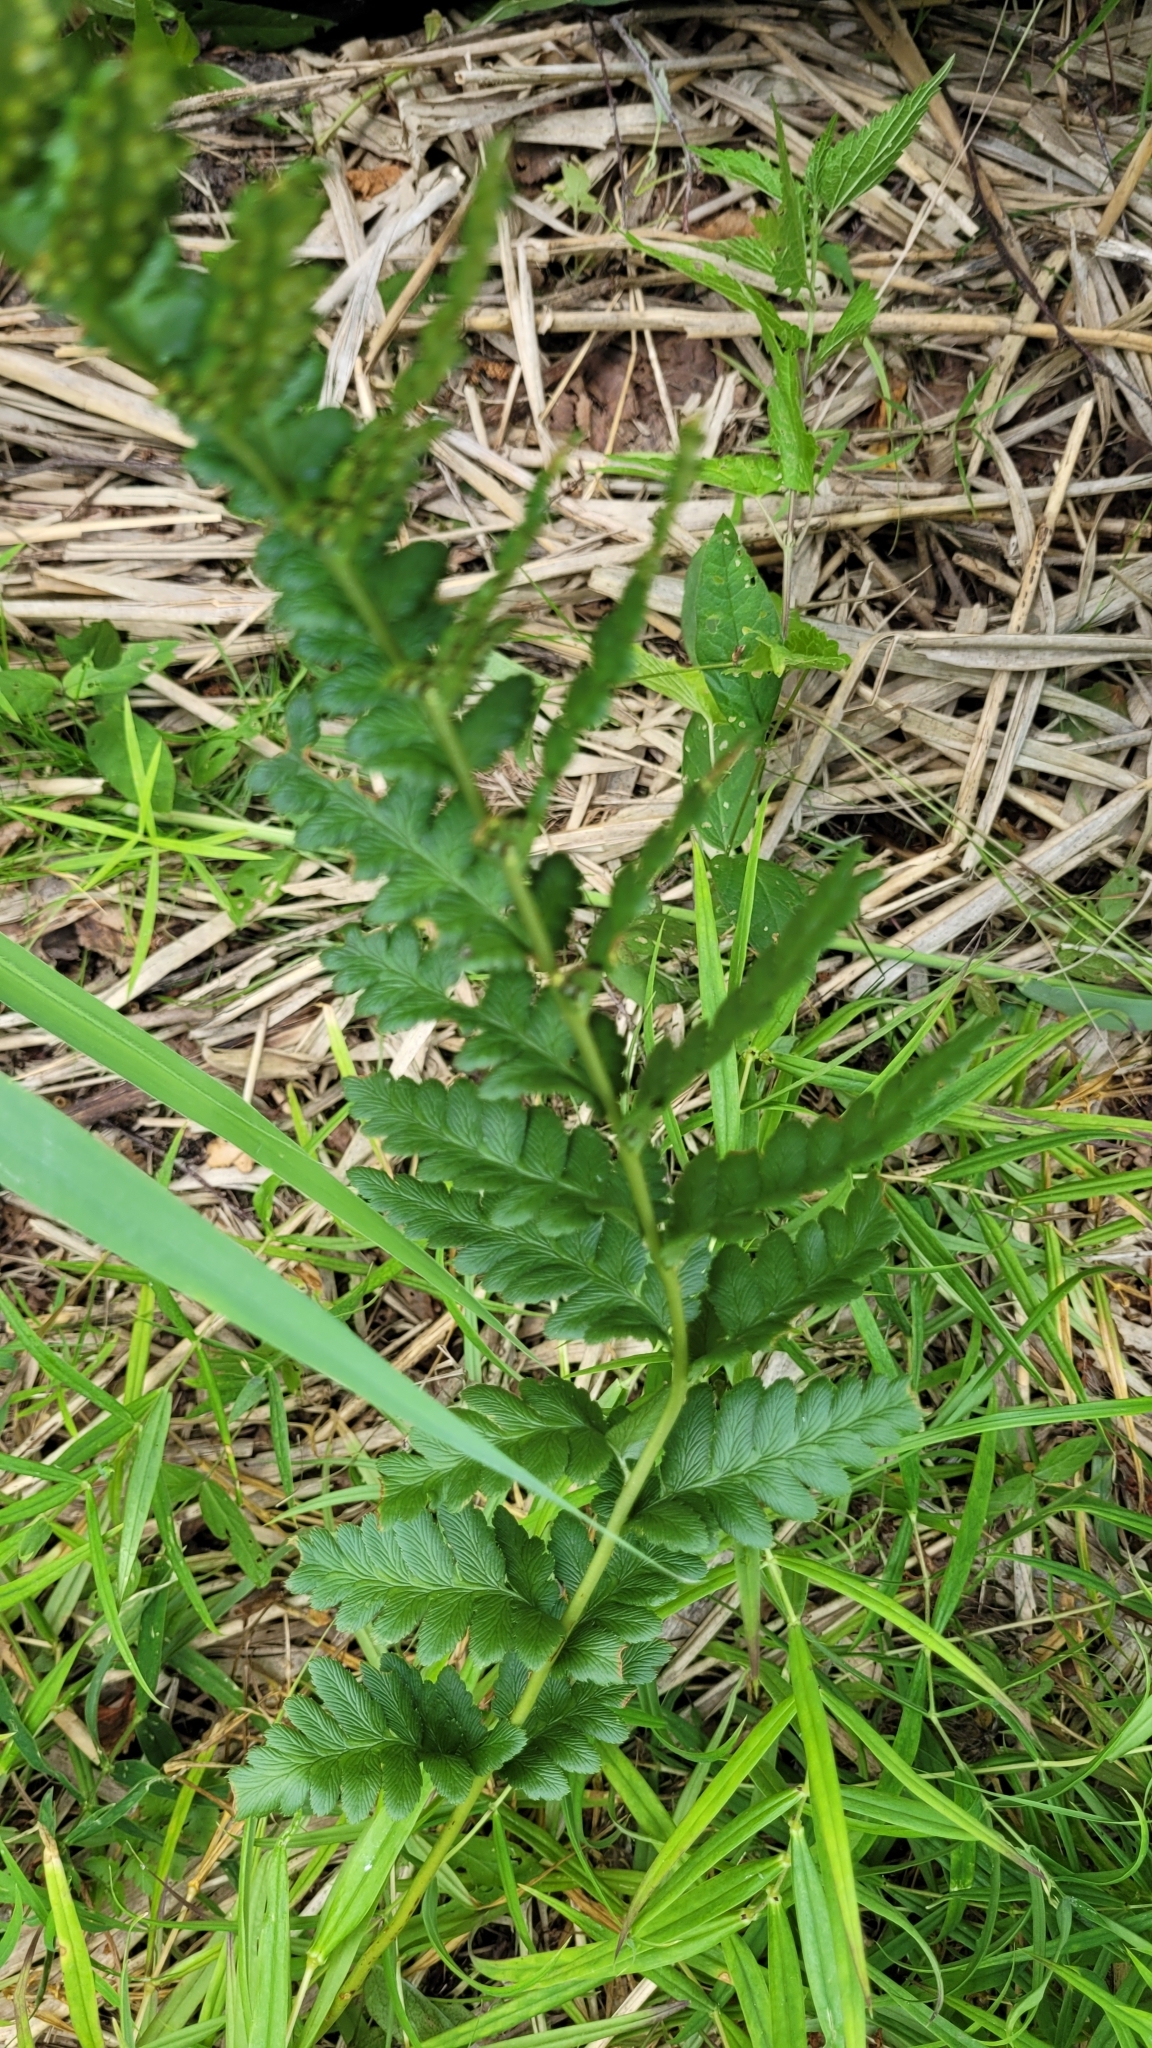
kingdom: Plantae
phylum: Tracheophyta
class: Polypodiopsida
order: Polypodiales
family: Dryopteridaceae
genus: Dryopteris
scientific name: Dryopteris cristata
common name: Crested wood fern
